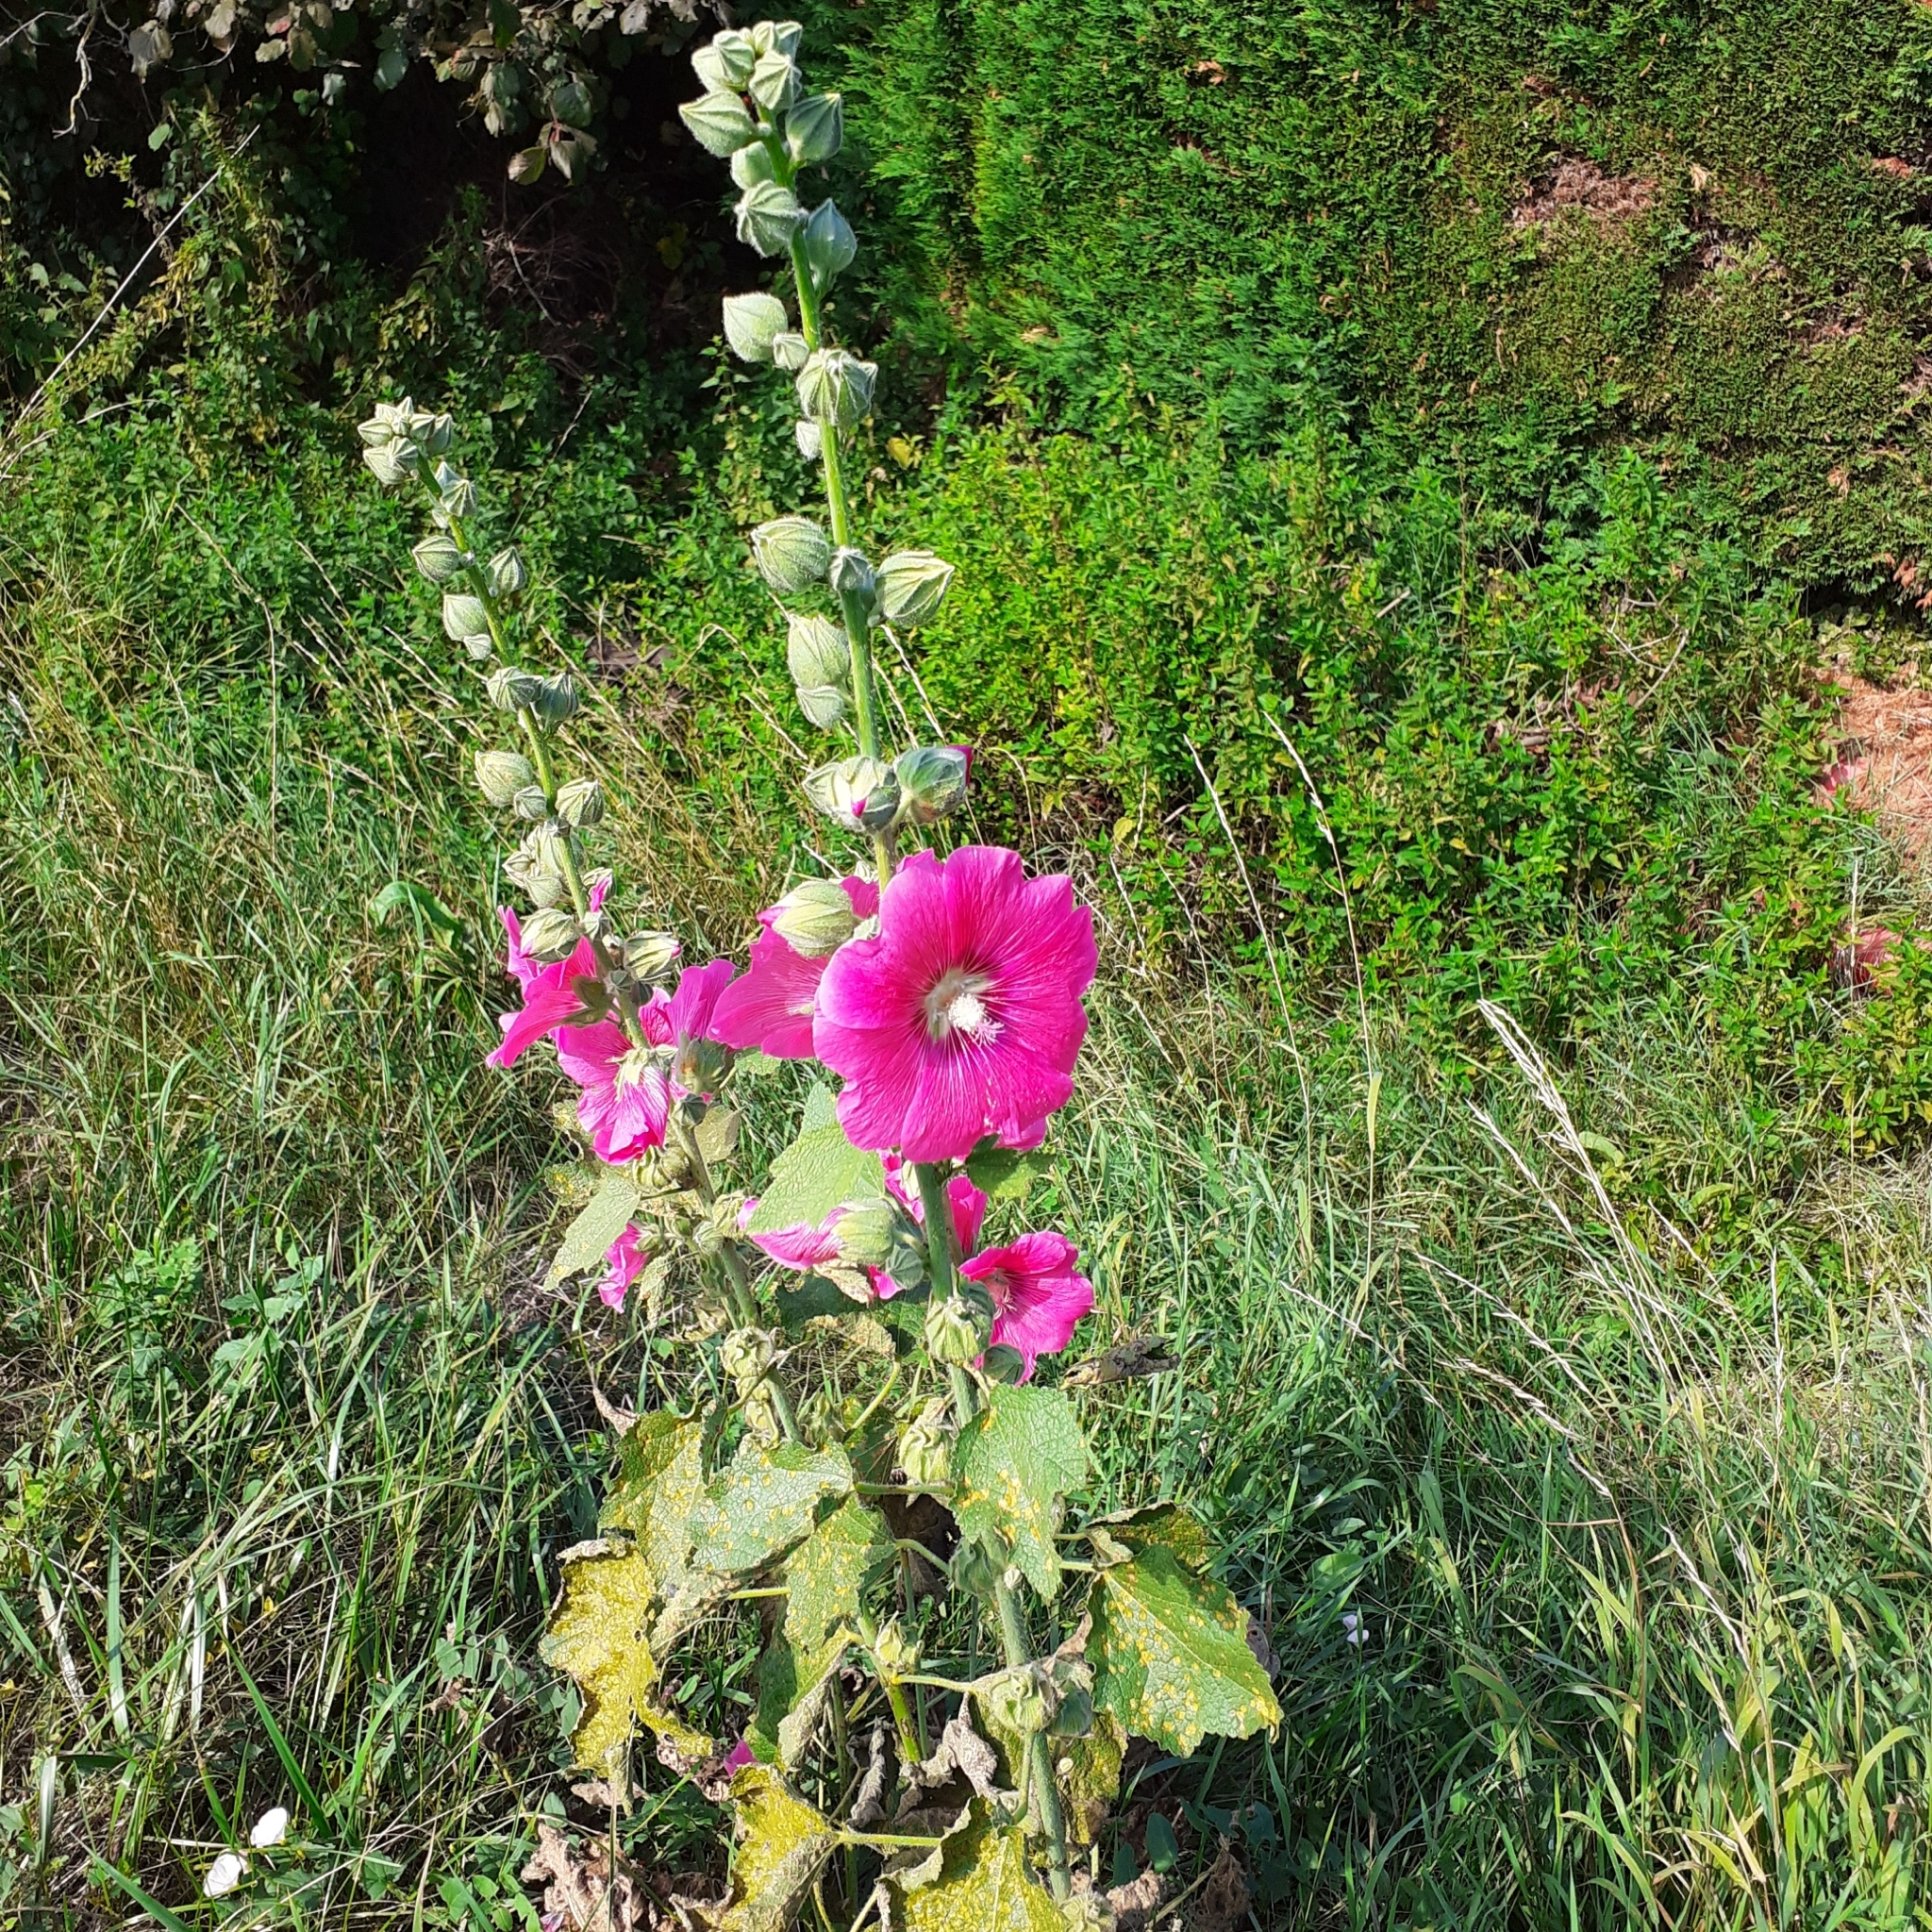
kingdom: Plantae
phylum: Tracheophyta
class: Magnoliopsida
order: Malvales
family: Malvaceae
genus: Alcea
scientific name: Alcea rosea
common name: Hollyhock
